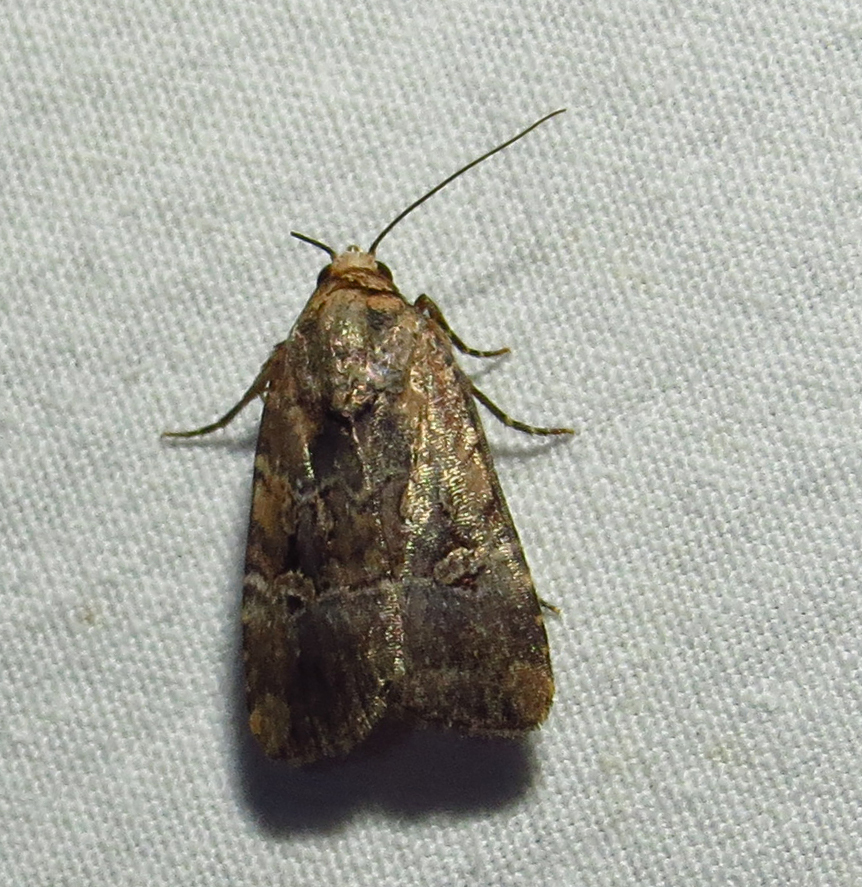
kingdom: Animalia
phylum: Arthropoda
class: Insecta
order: Lepidoptera
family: Noctuidae
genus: Elaphria
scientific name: Elaphria chalcedonia
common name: Chalcedony midget
